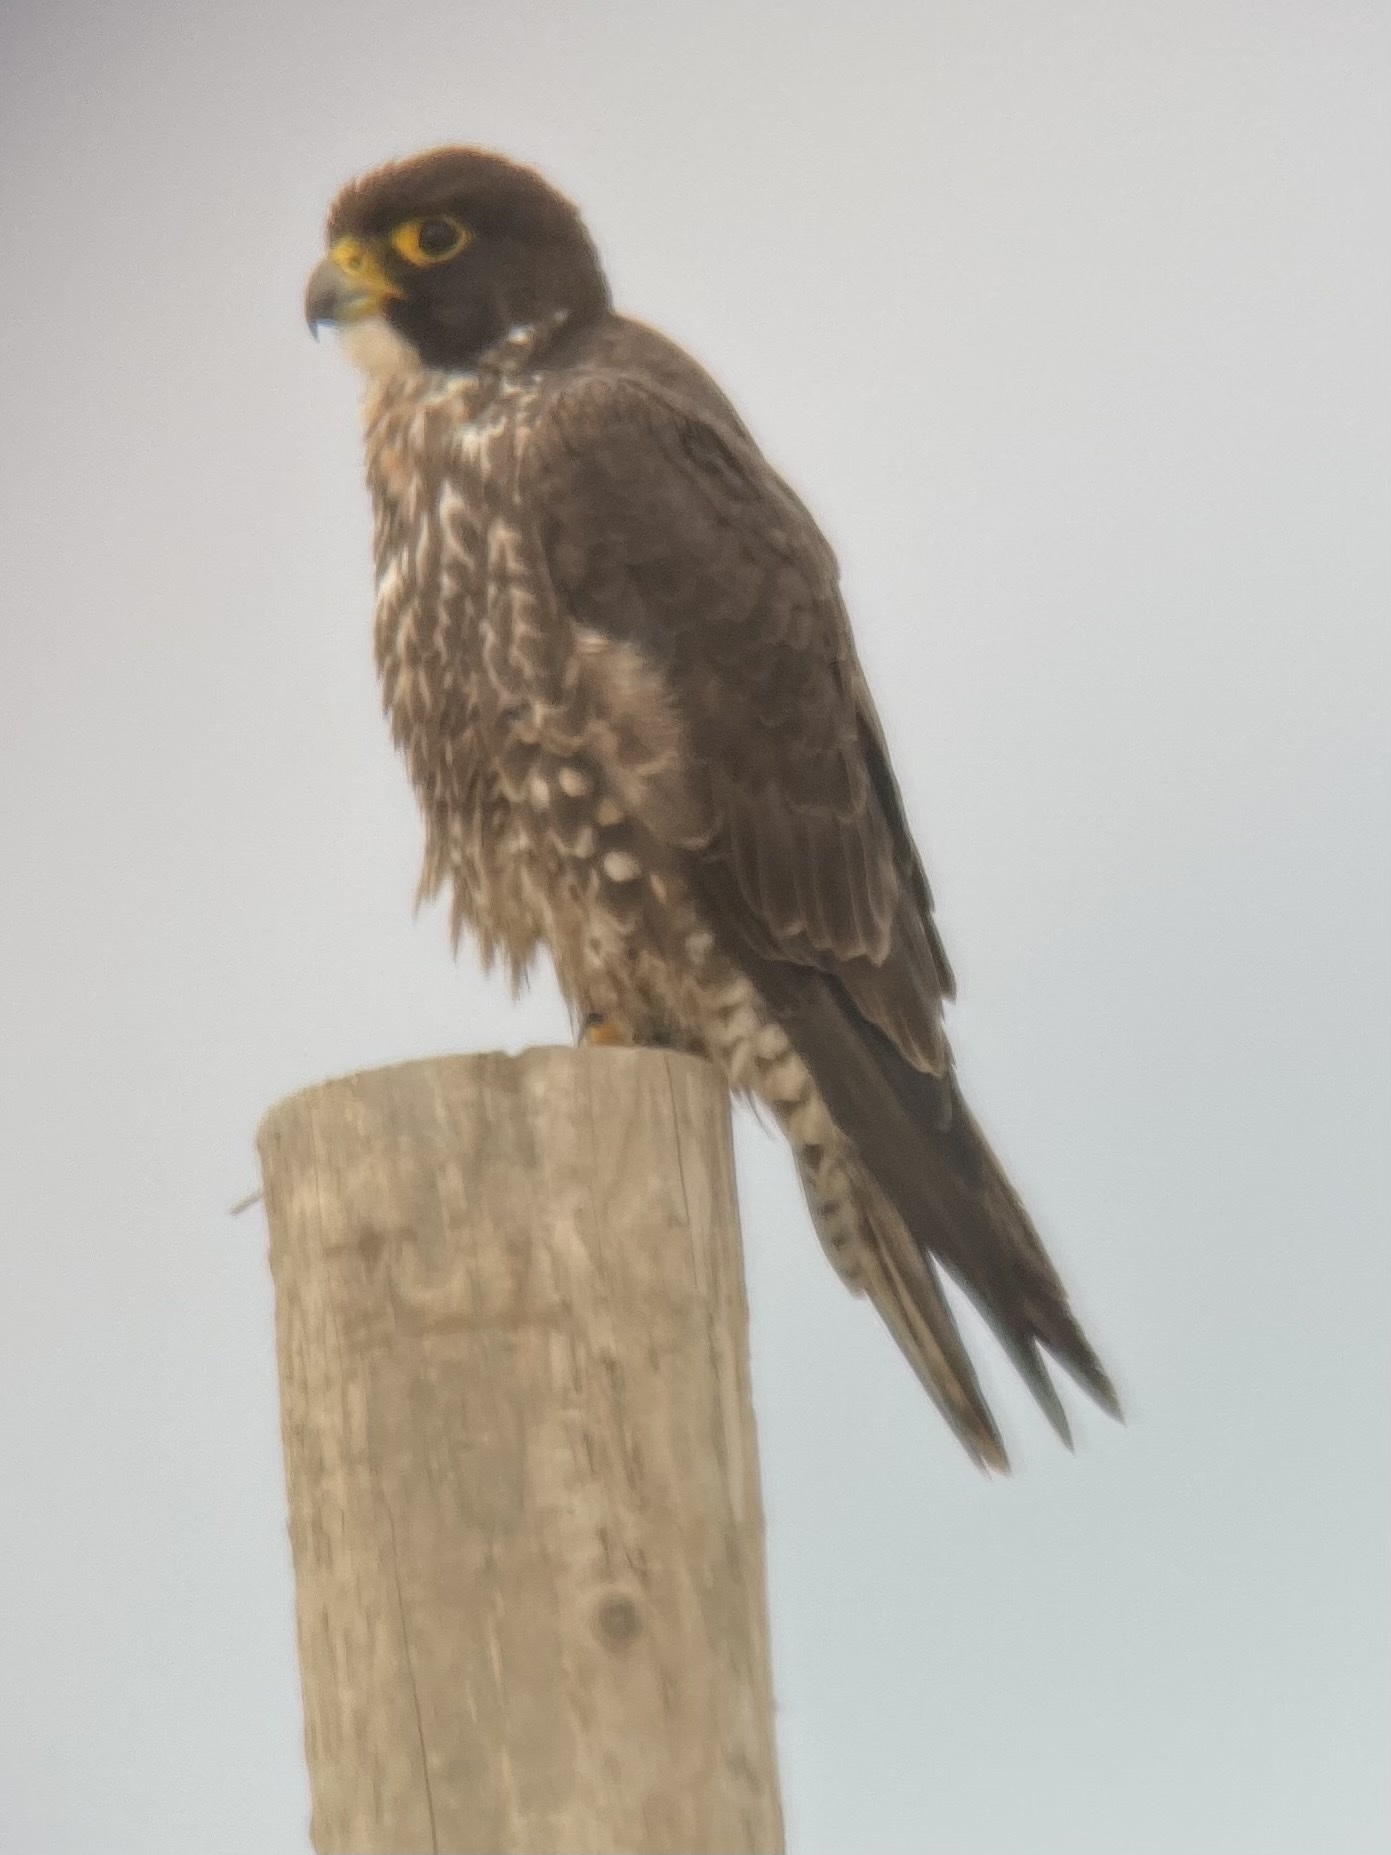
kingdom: Animalia
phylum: Chordata
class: Aves
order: Falconiformes
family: Falconidae
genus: Falco
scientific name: Falco peregrinus
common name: Peregrine falcon
